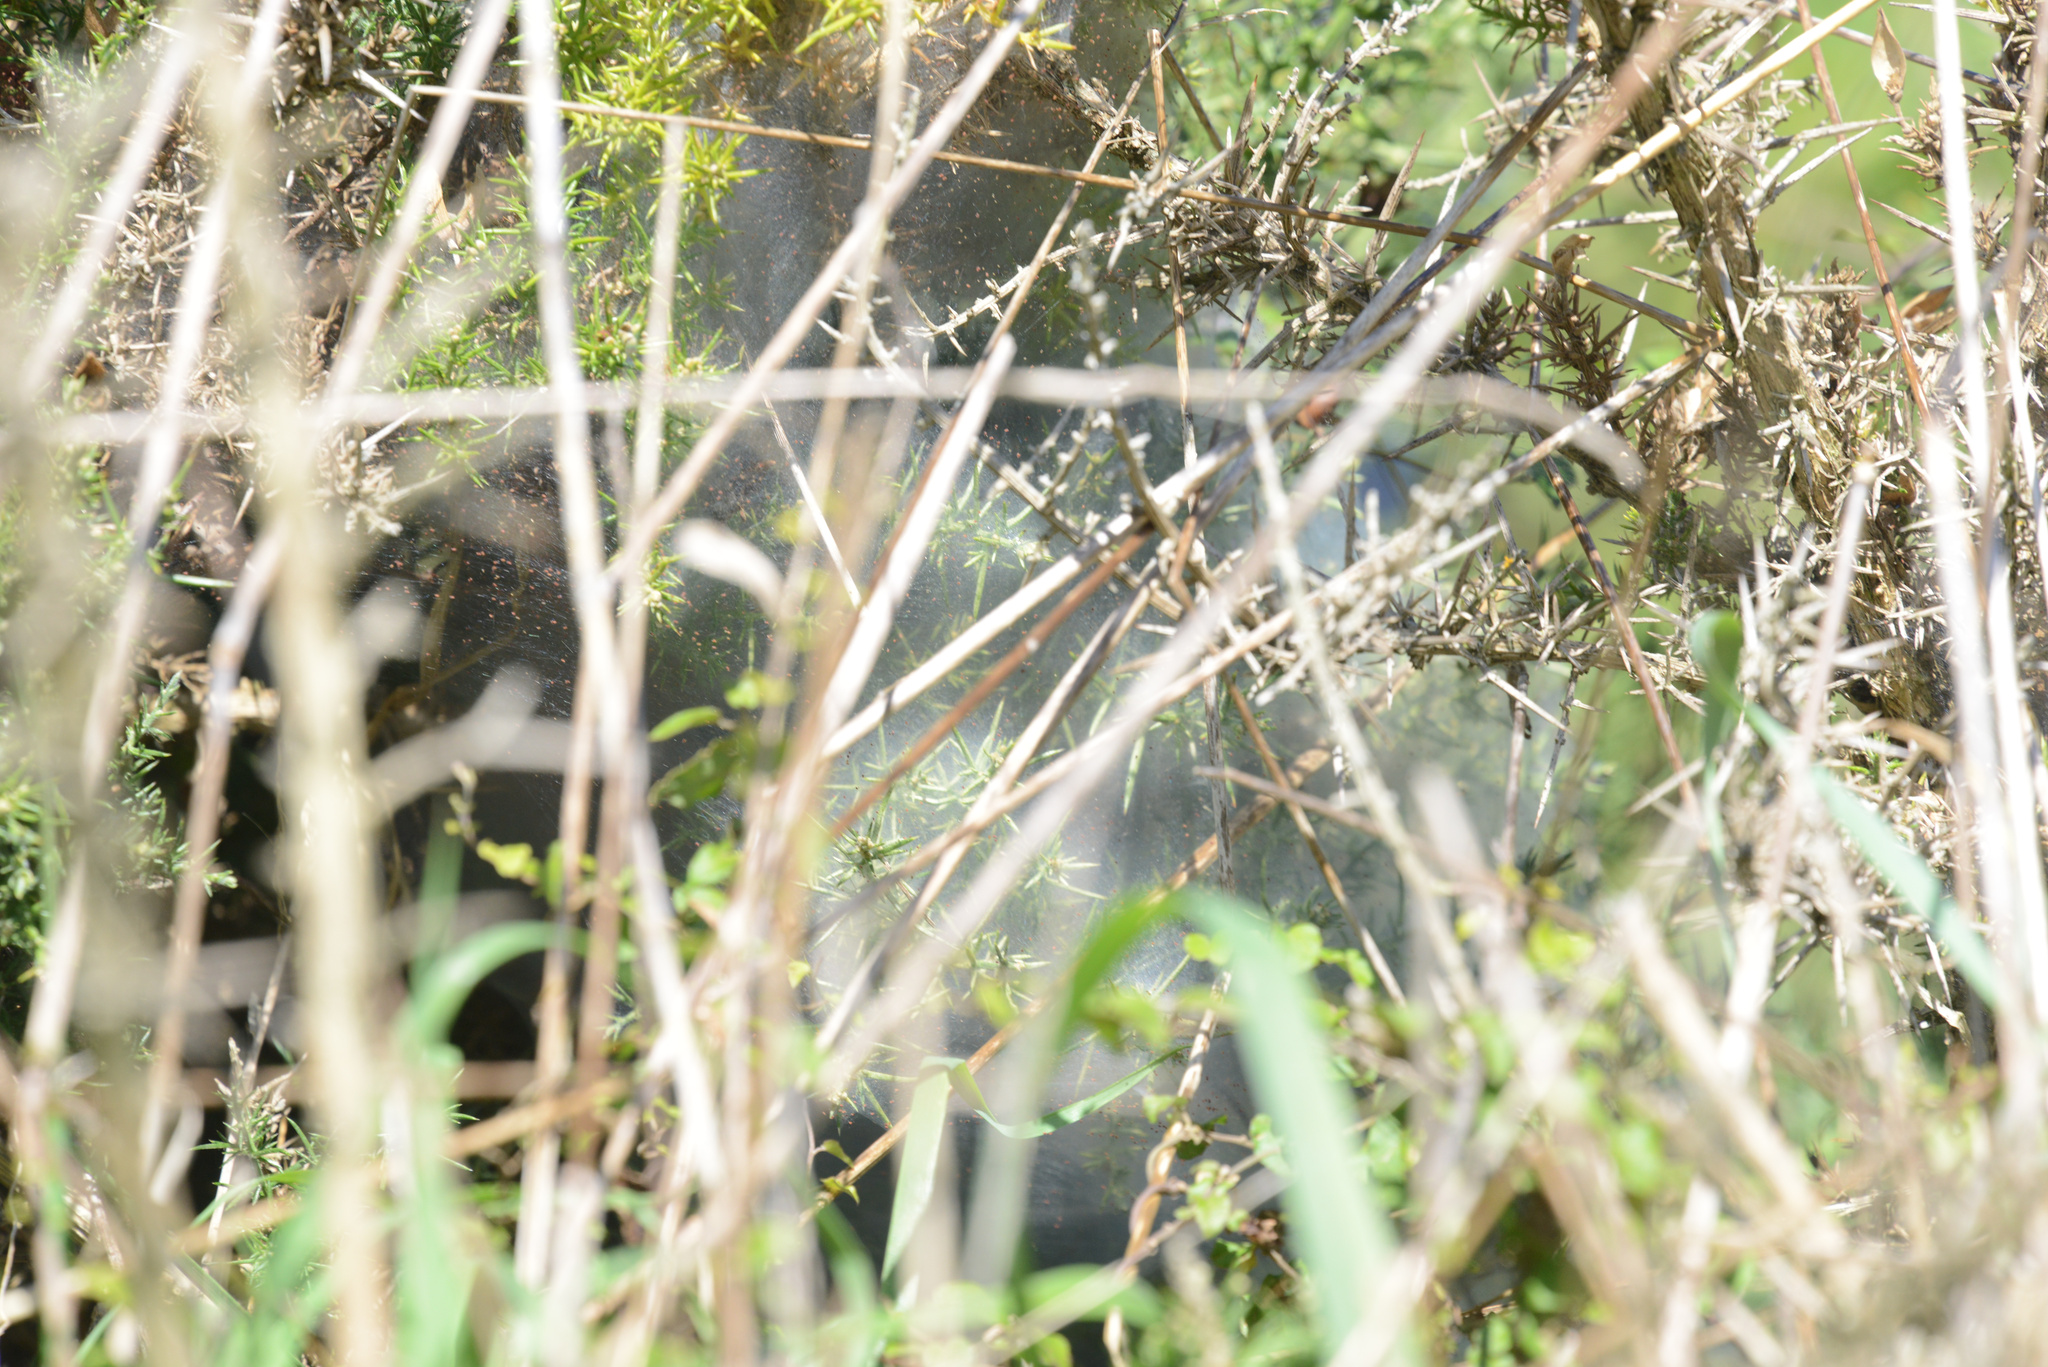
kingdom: Animalia
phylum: Arthropoda
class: Arachnida
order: Trombidiformes
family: Tetranychidae
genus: Tetranychus
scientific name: Tetranychus lintearius
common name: Gorse spider mite
